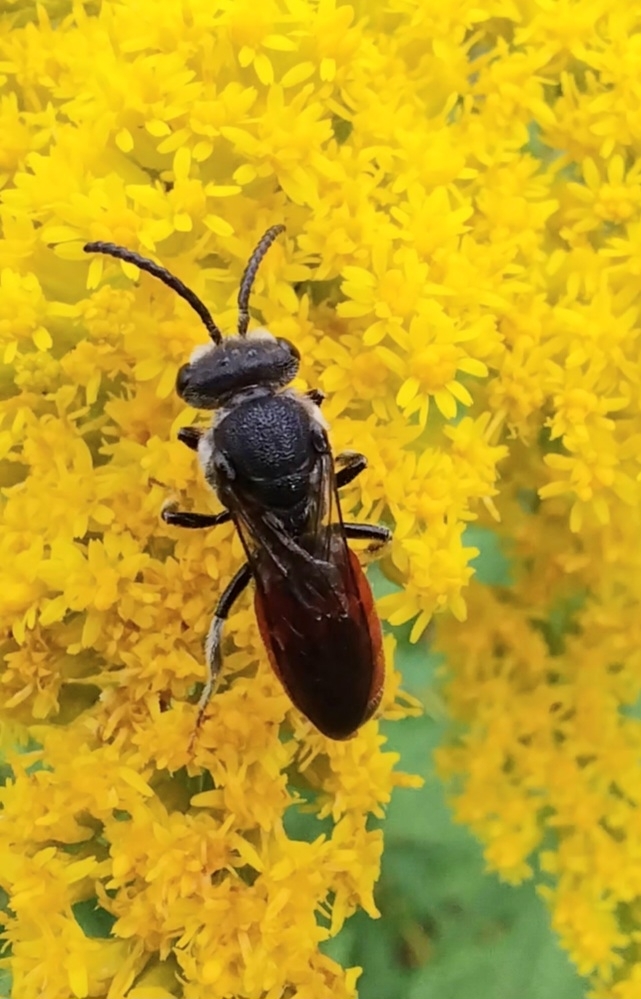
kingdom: Animalia
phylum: Arthropoda
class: Insecta
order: Hymenoptera
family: Halictidae
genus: Sphecodes
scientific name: Sphecodes albilabris
